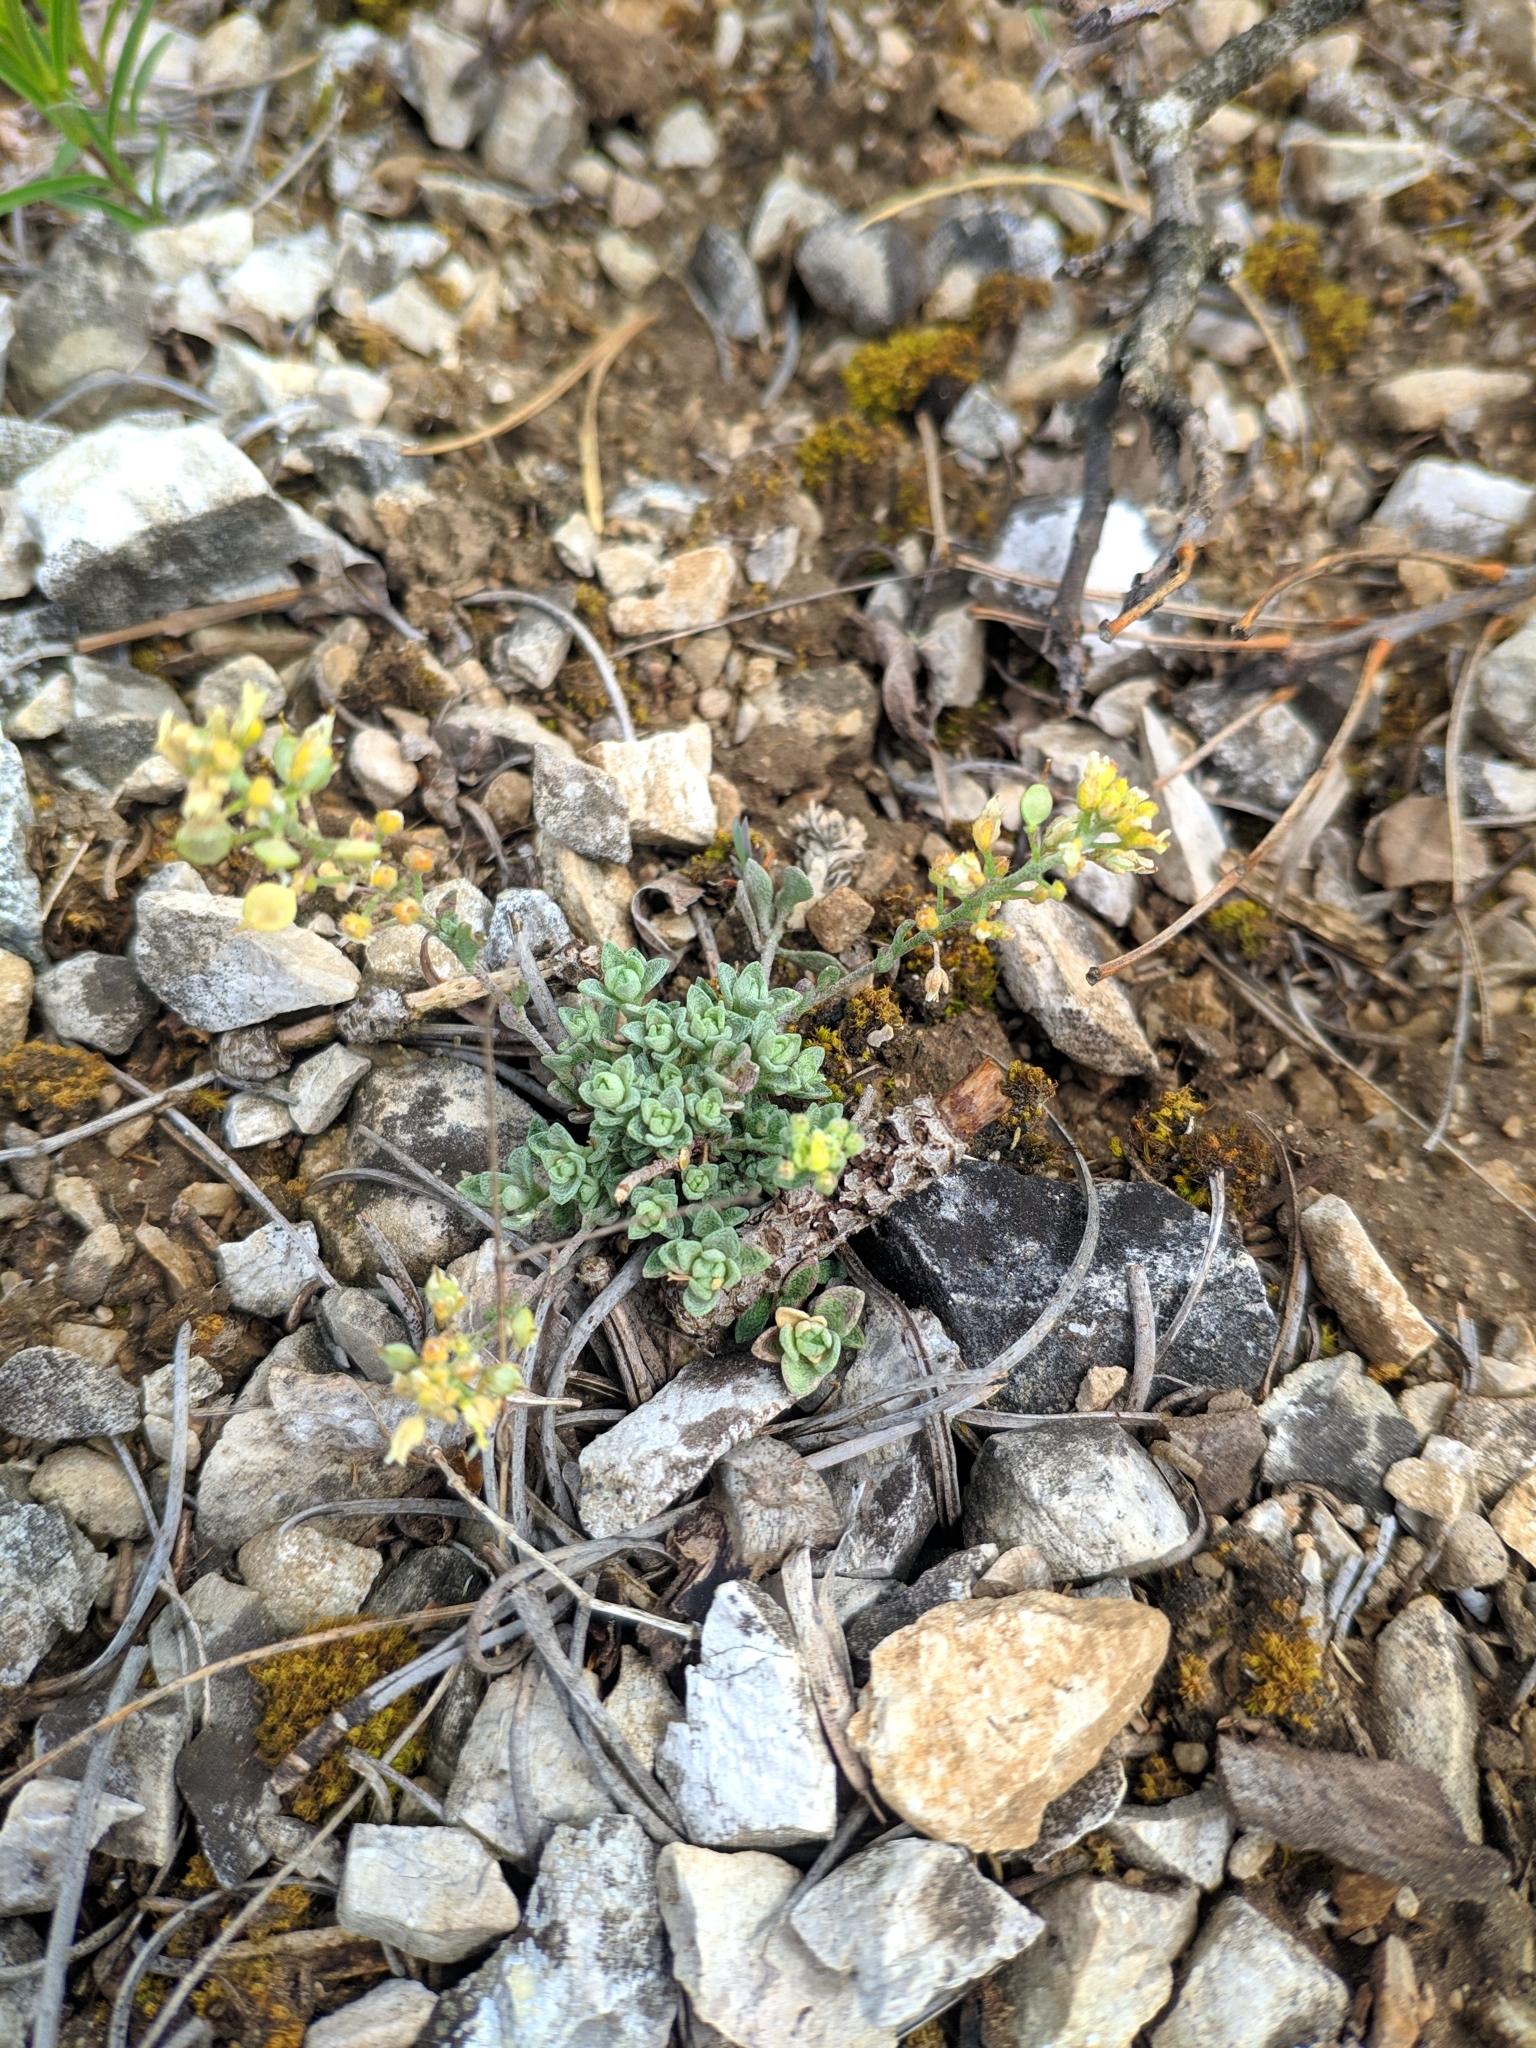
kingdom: Plantae
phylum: Tracheophyta
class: Magnoliopsida
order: Brassicales
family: Brassicaceae
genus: Alyssum
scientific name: Alyssum gmelinii
